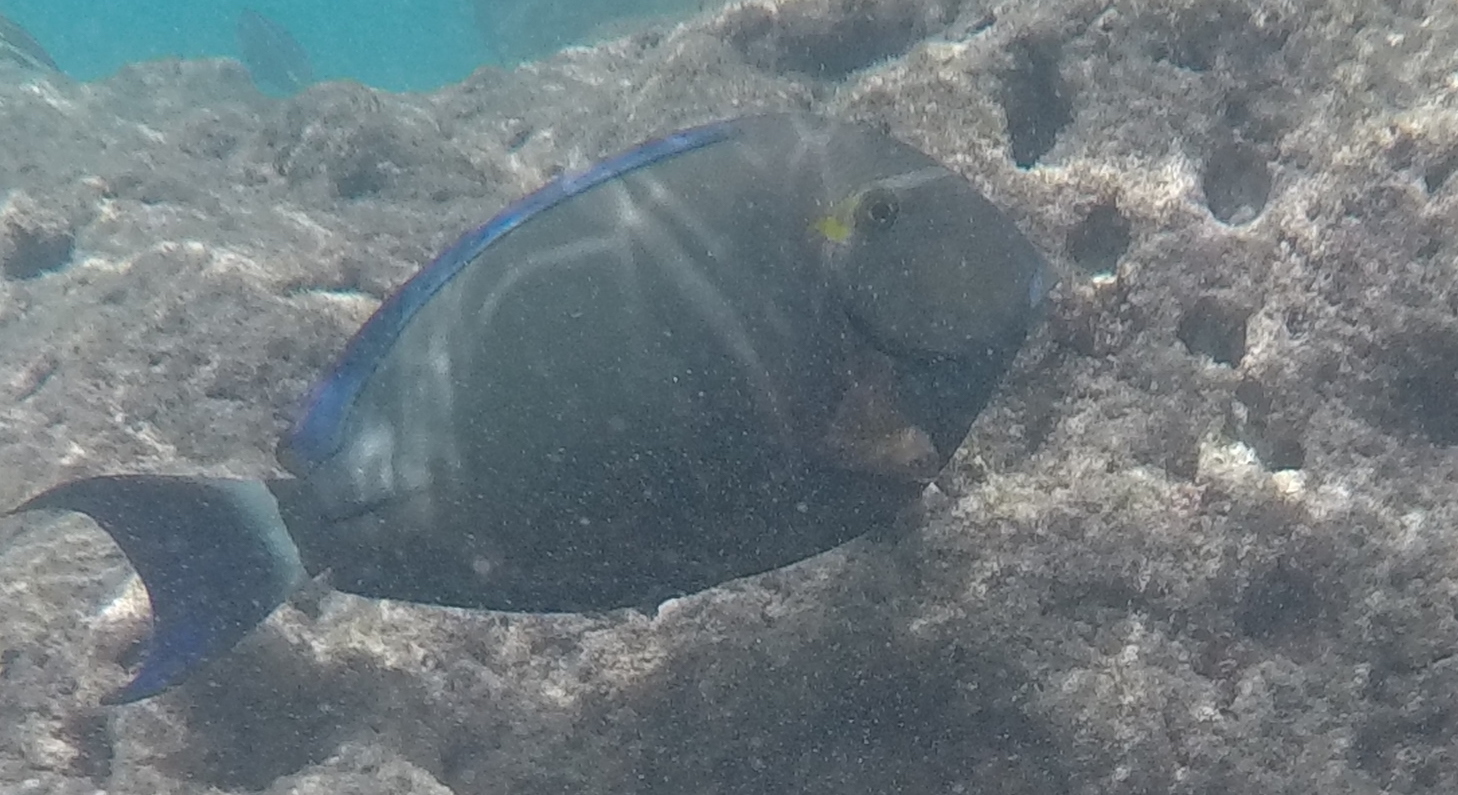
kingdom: Animalia
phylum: Chordata
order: Perciformes
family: Acanthuridae
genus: Acanthurus
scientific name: Acanthurus blochii
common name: Blue-banded pualu
